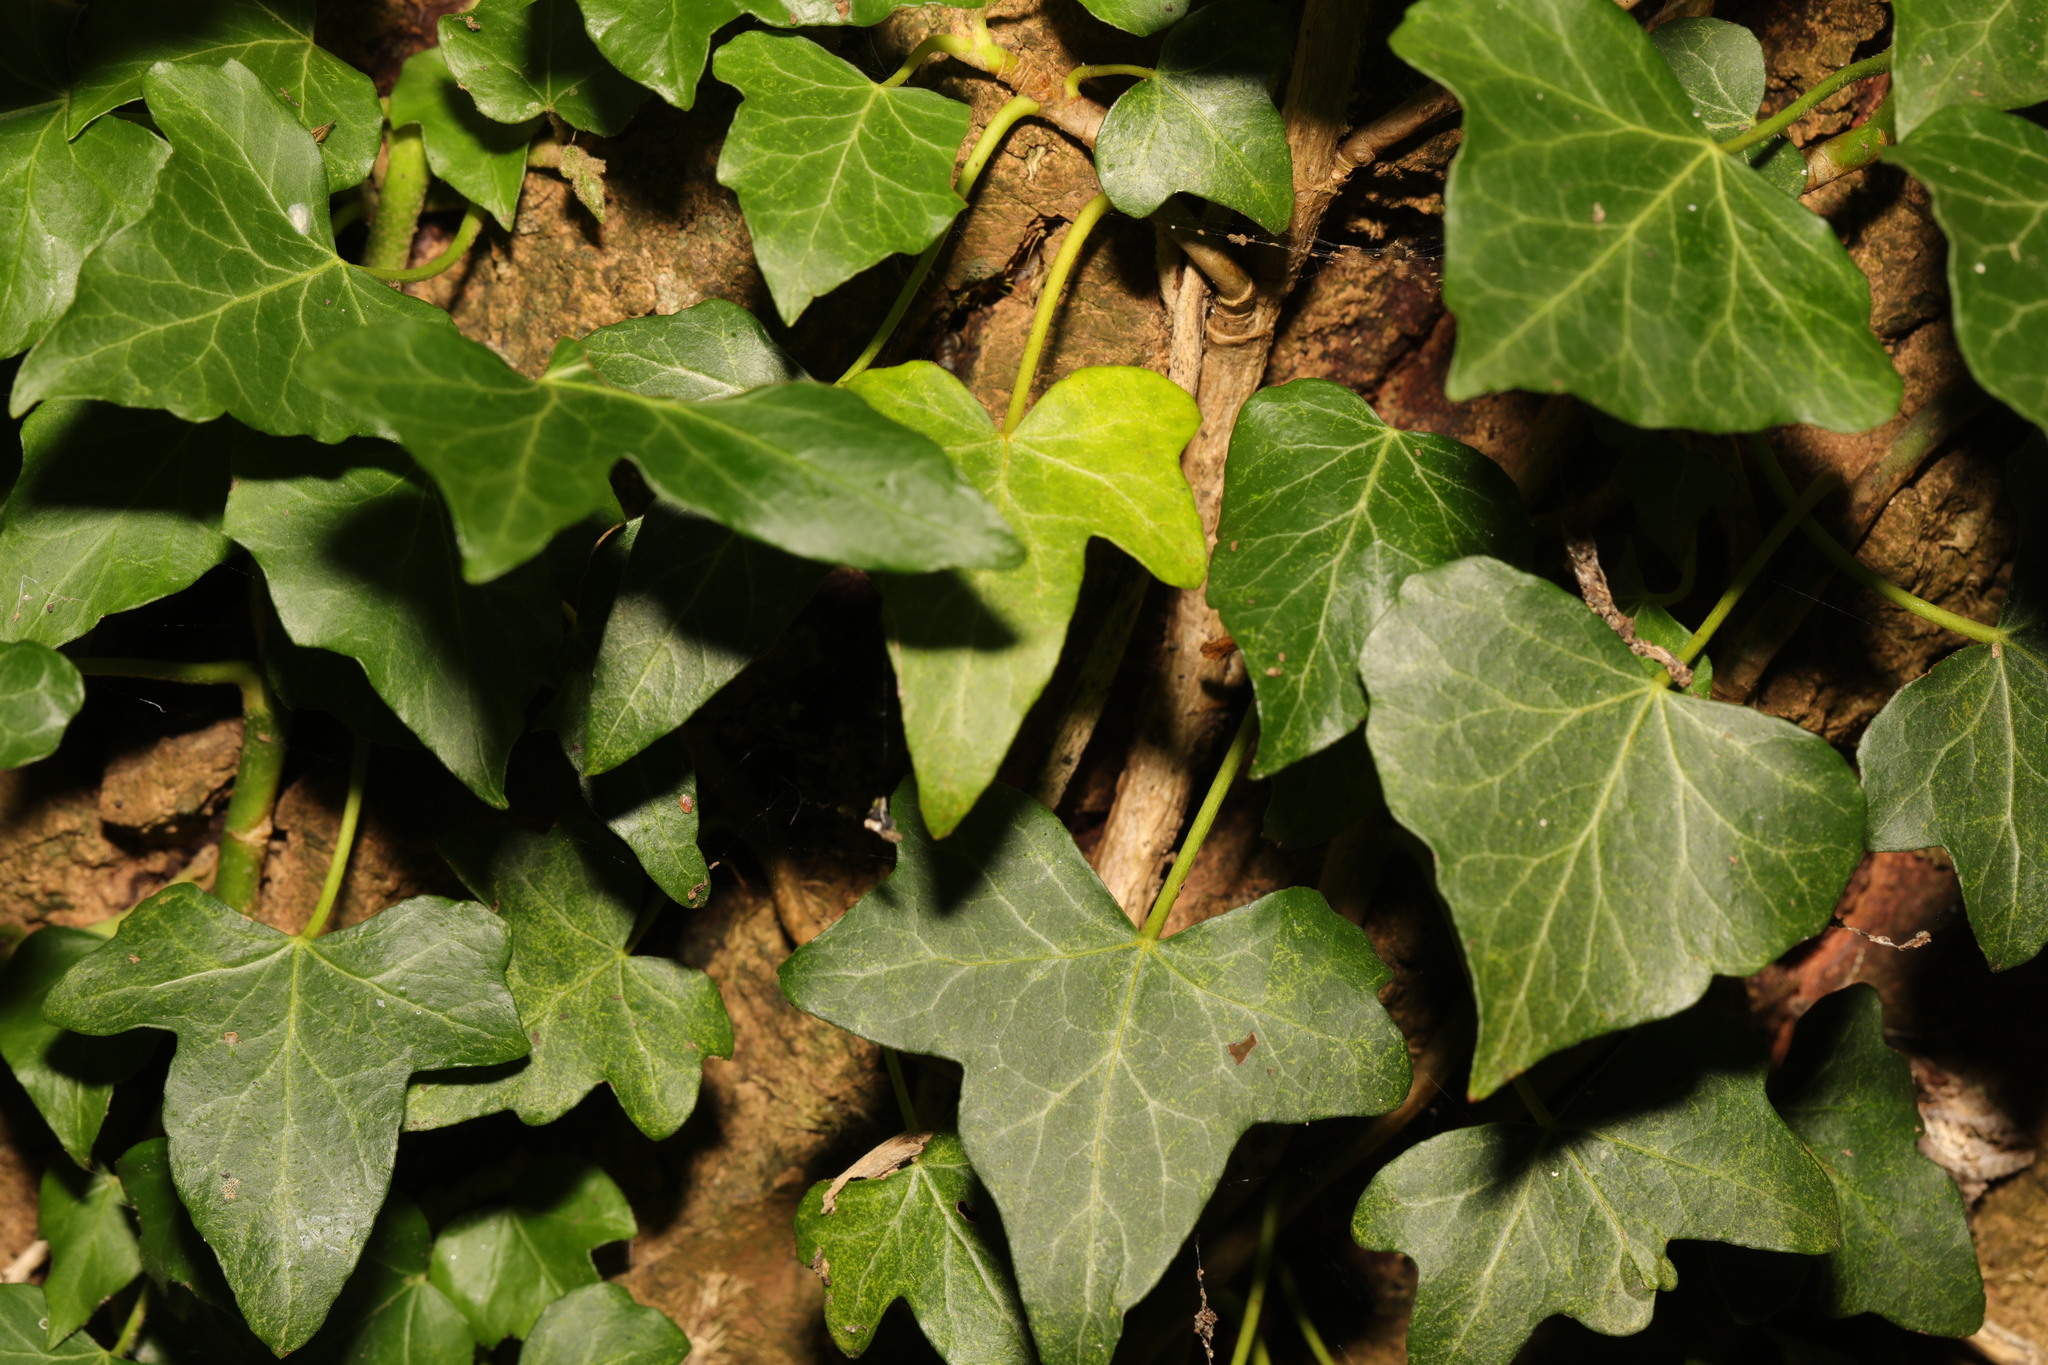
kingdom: Plantae
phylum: Tracheophyta
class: Magnoliopsida
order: Apiales
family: Araliaceae
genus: Hedera
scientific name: Hedera helix
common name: Ivy
